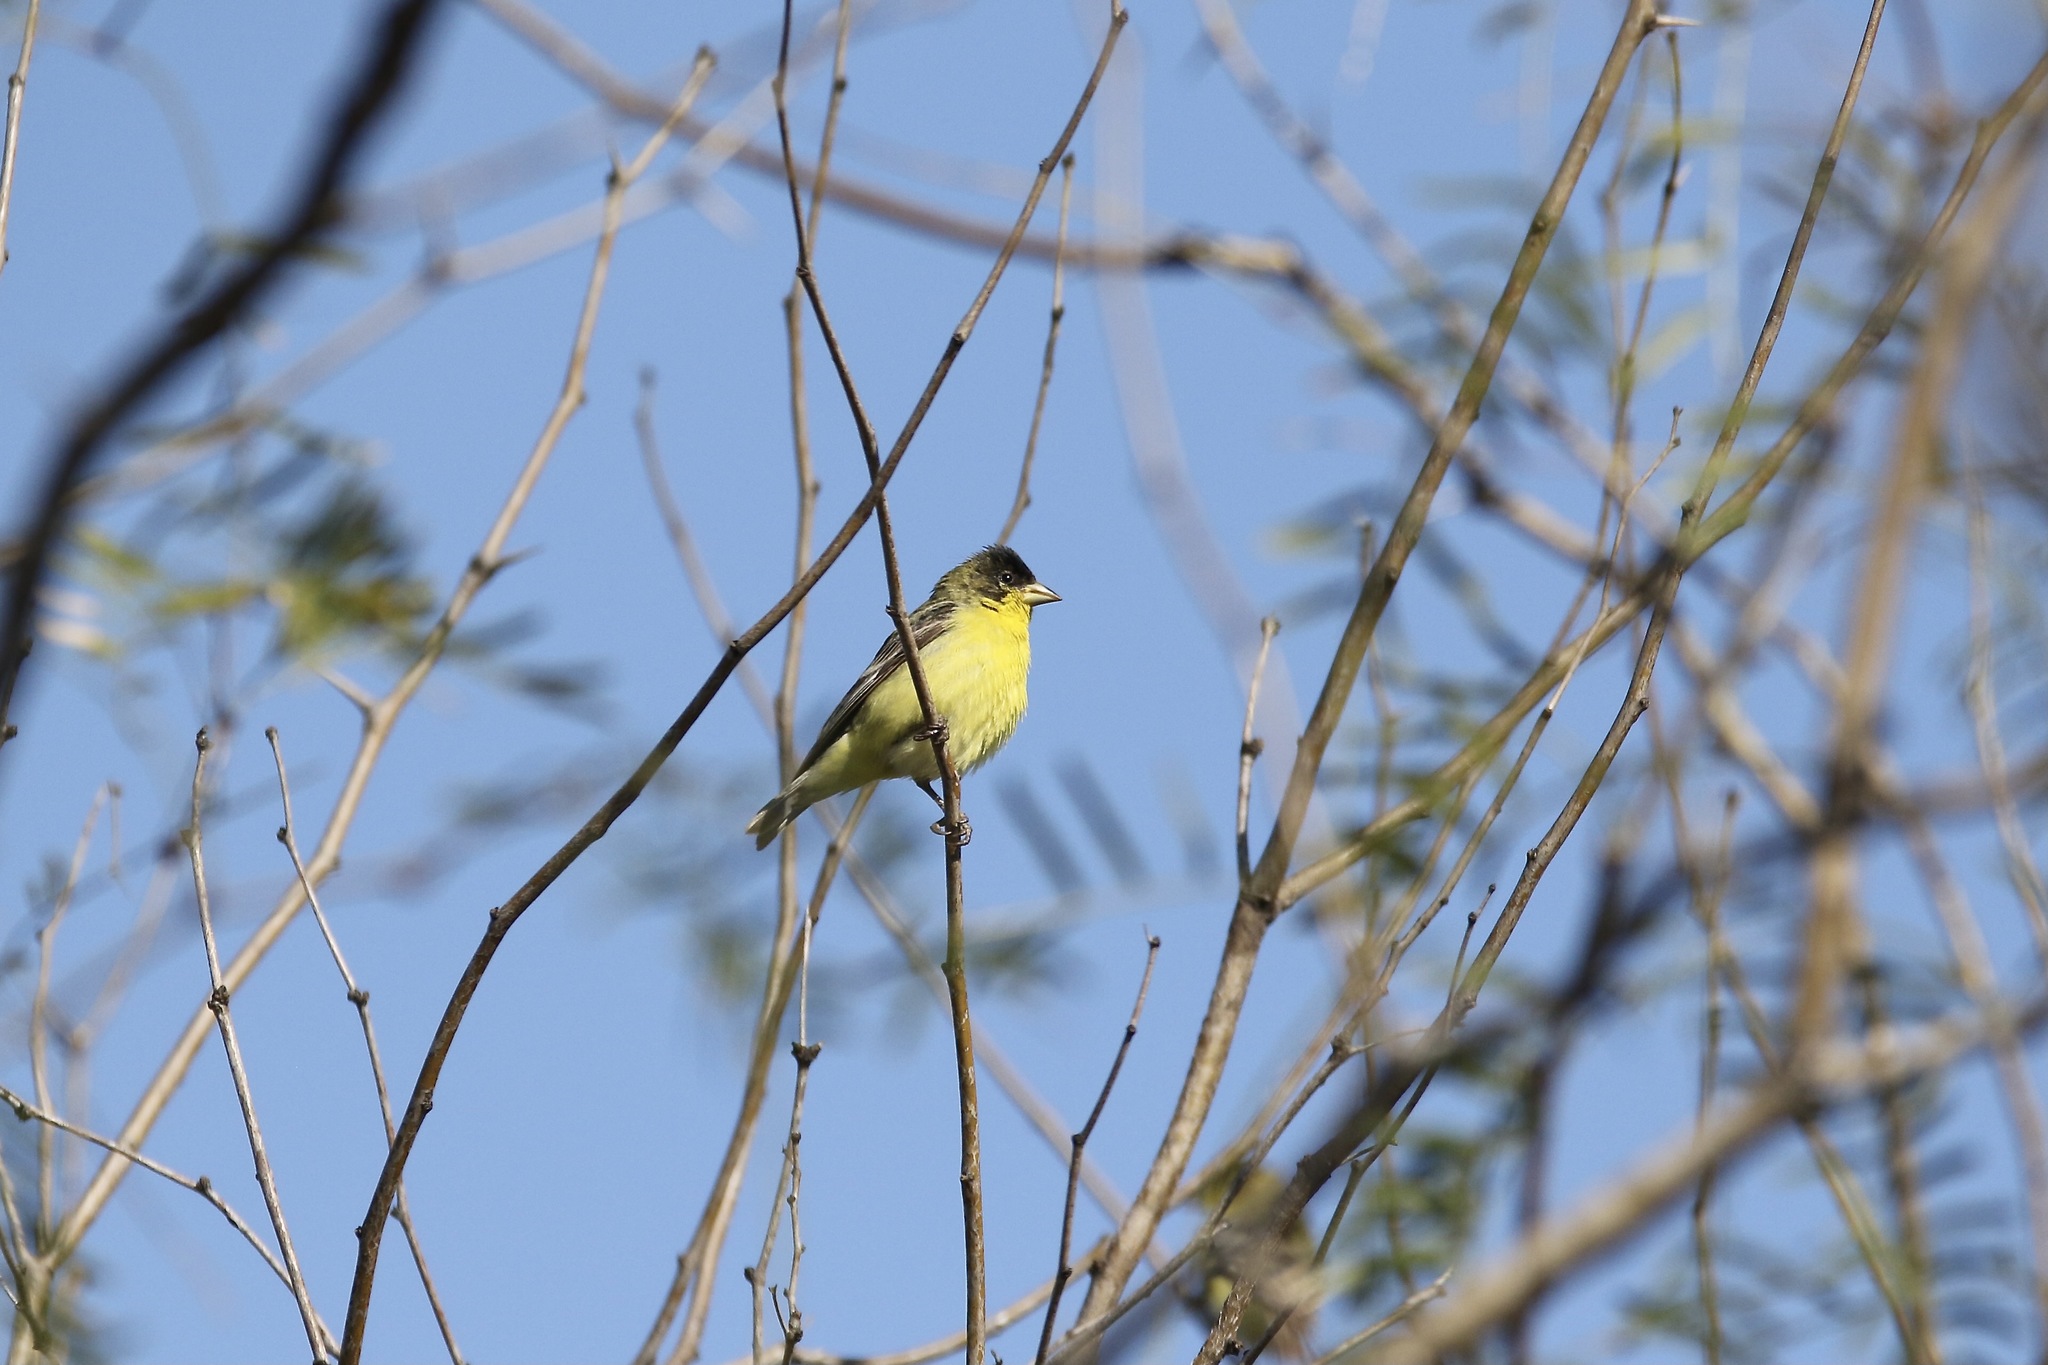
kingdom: Animalia
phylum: Chordata
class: Aves
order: Passeriformes
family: Fringillidae
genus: Spinus
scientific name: Spinus psaltria
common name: Lesser goldfinch
